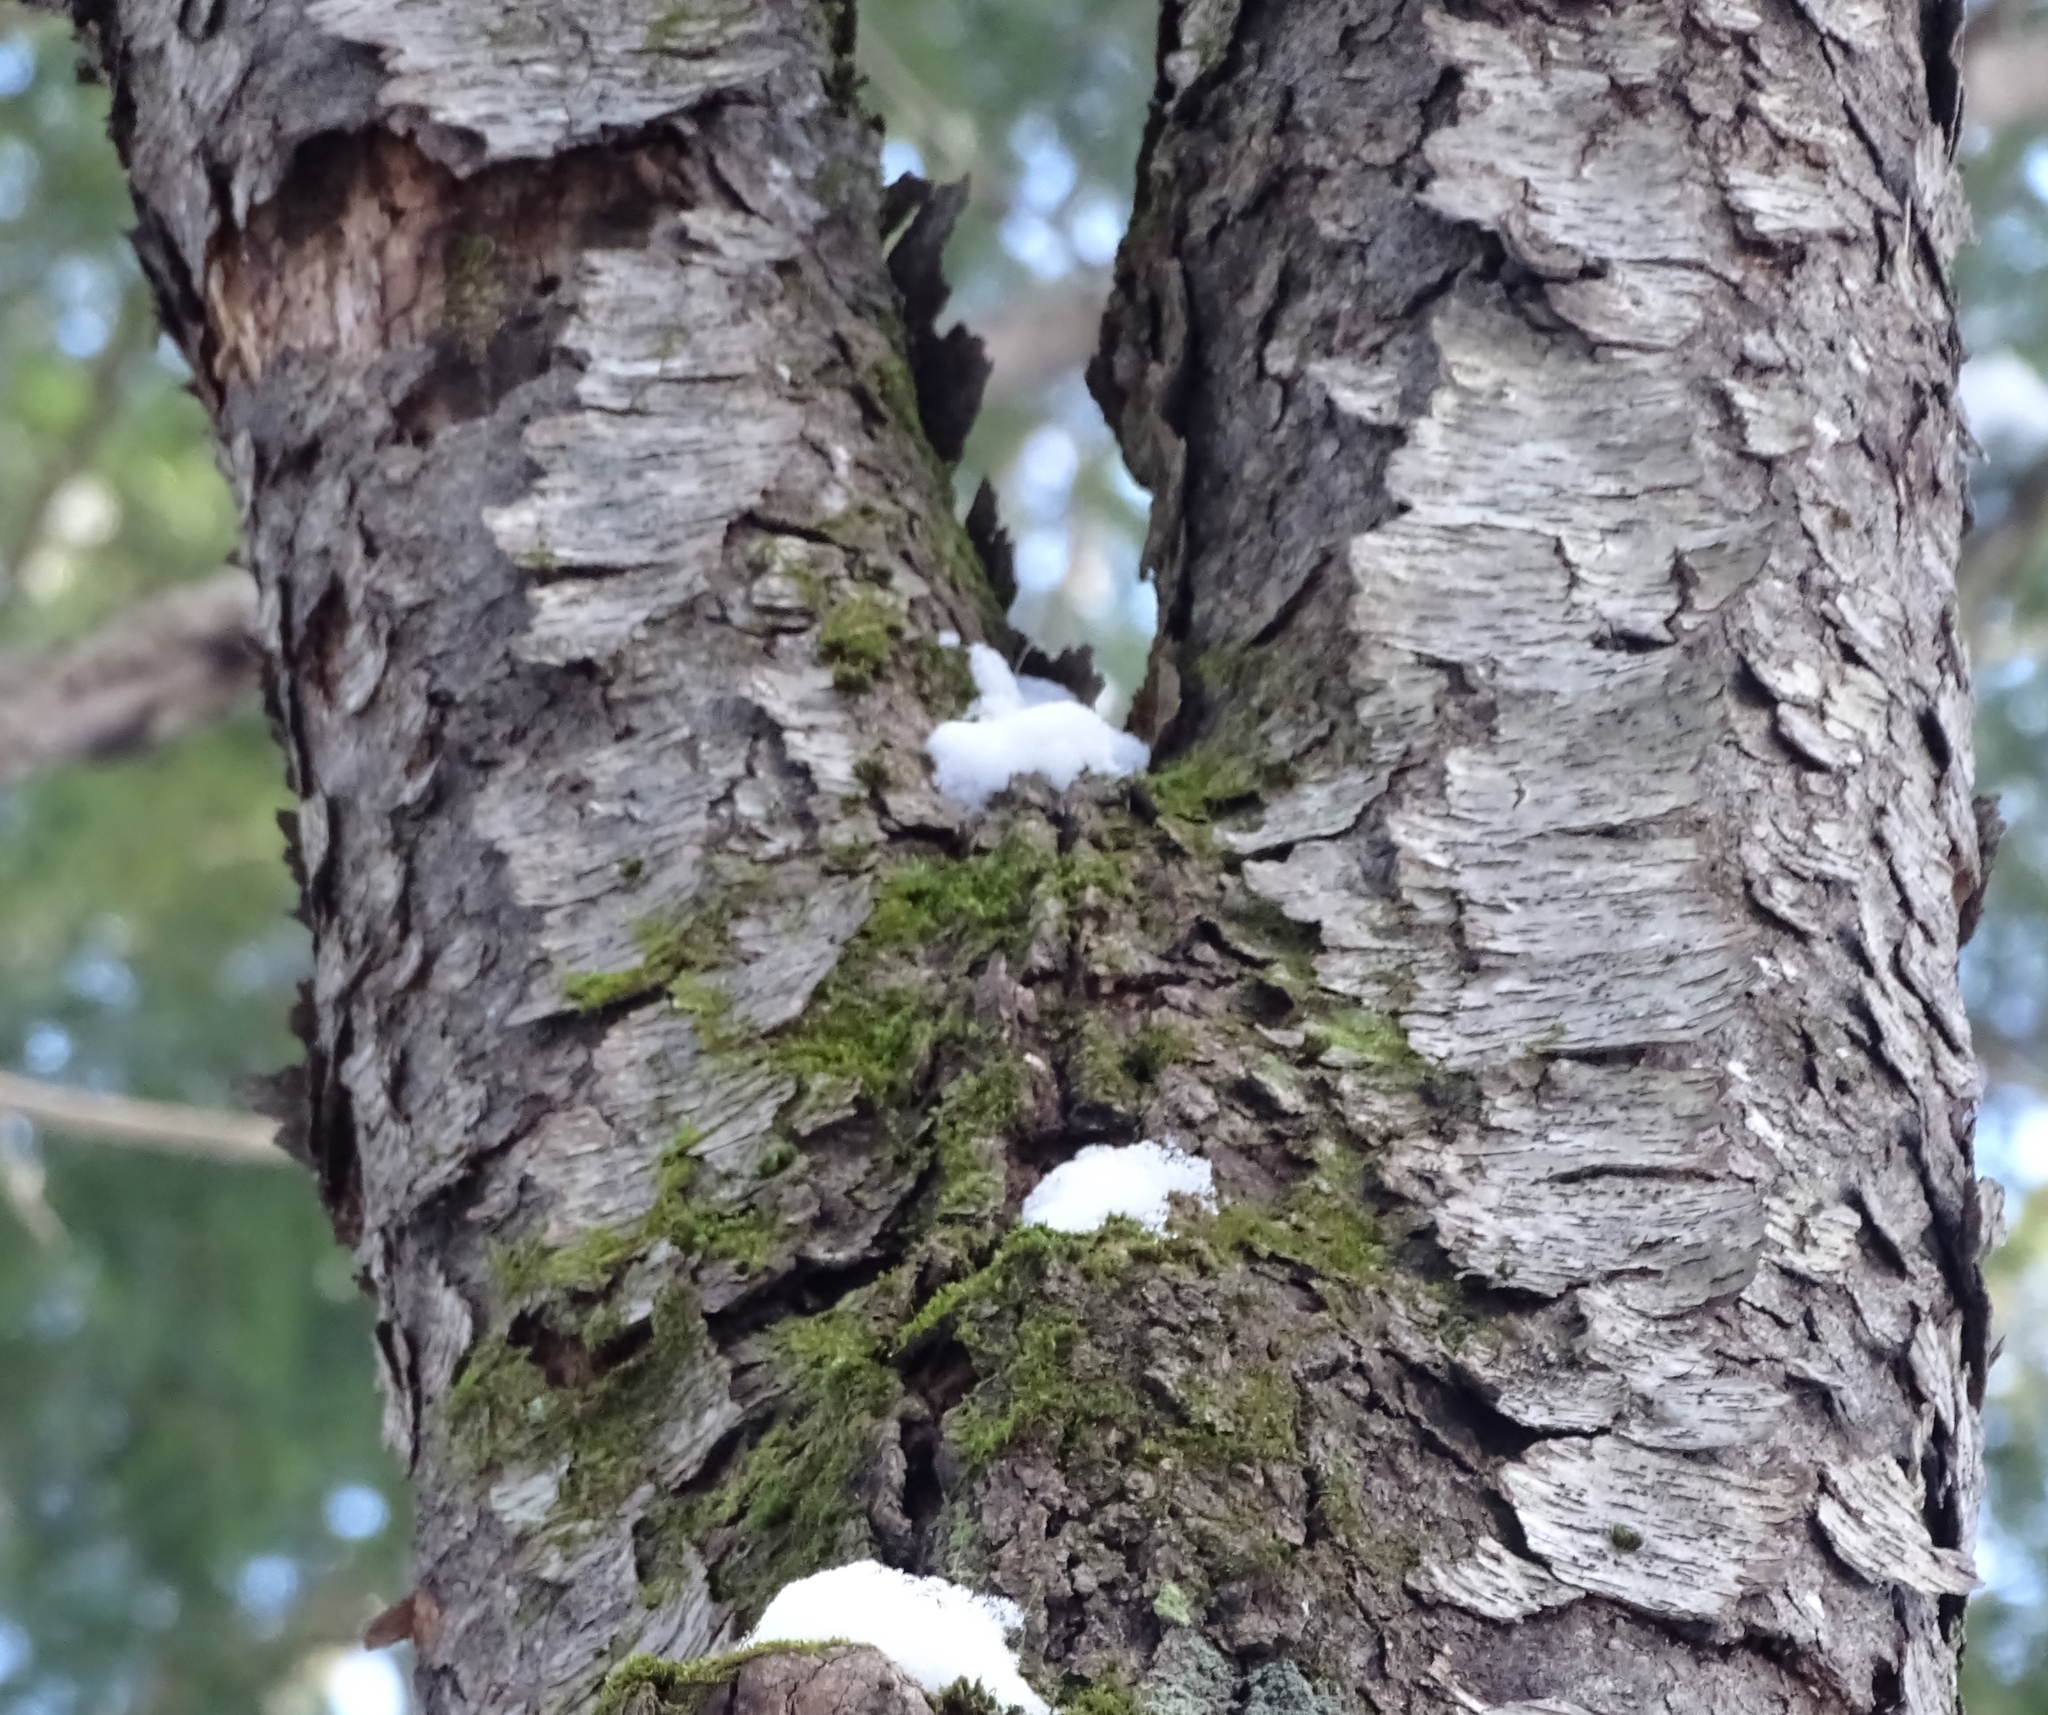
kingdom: Plantae
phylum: Tracheophyta
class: Magnoliopsida
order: Rosales
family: Rosaceae
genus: Prunus
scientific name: Prunus serotina
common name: Black cherry
